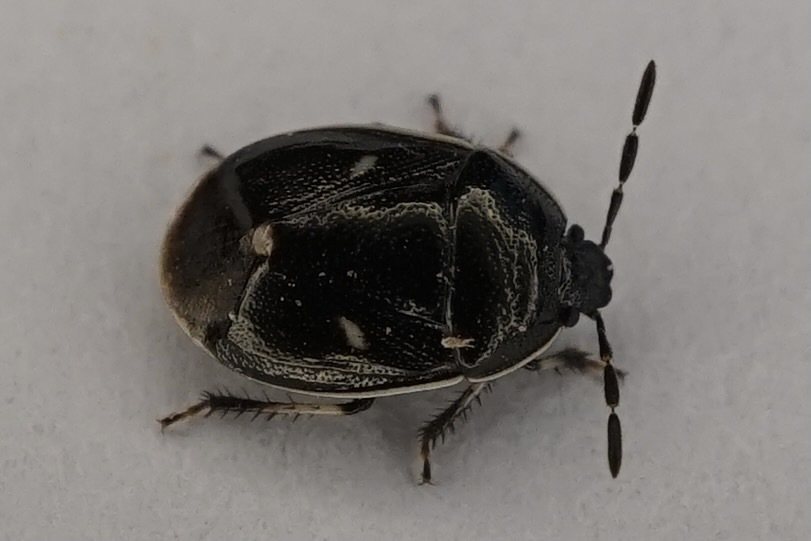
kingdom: Animalia
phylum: Arthropoda
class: Insecta
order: Hemiptera
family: Cydnidae
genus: Adomerus
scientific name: Adomerus triguttulus
